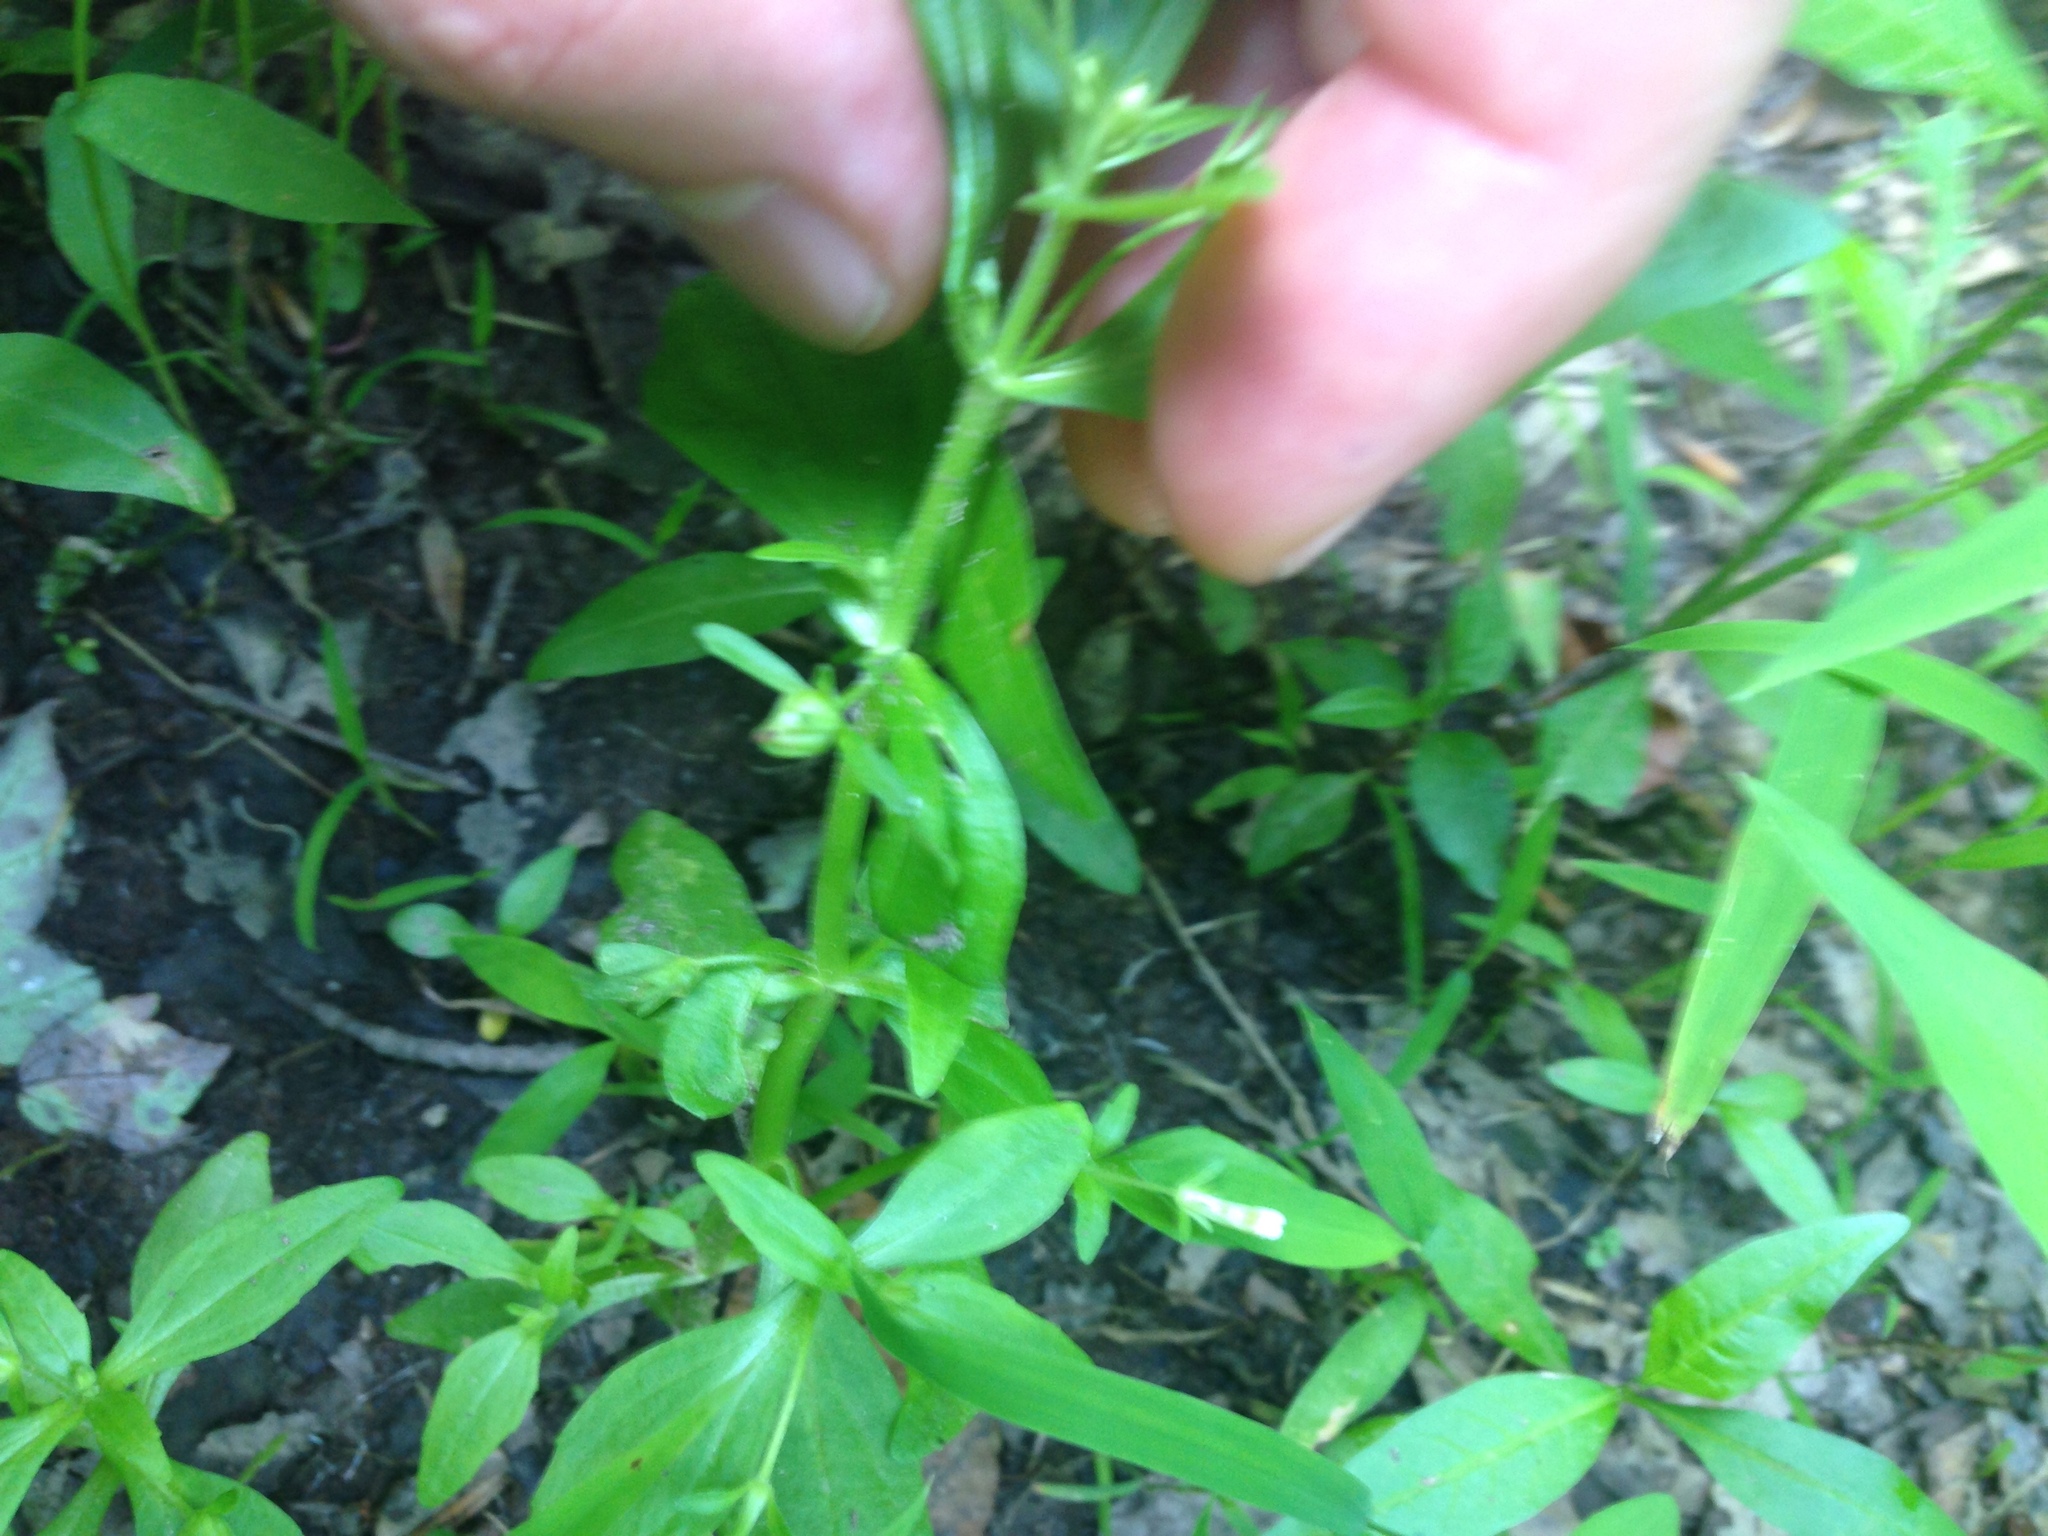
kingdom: Plantae
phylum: Tracheophyta
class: Magnoliopsida
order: Lamiales
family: Plantaginaceae
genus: Gratiola
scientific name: Gratiola neglecta
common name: American hedge-hyssop
